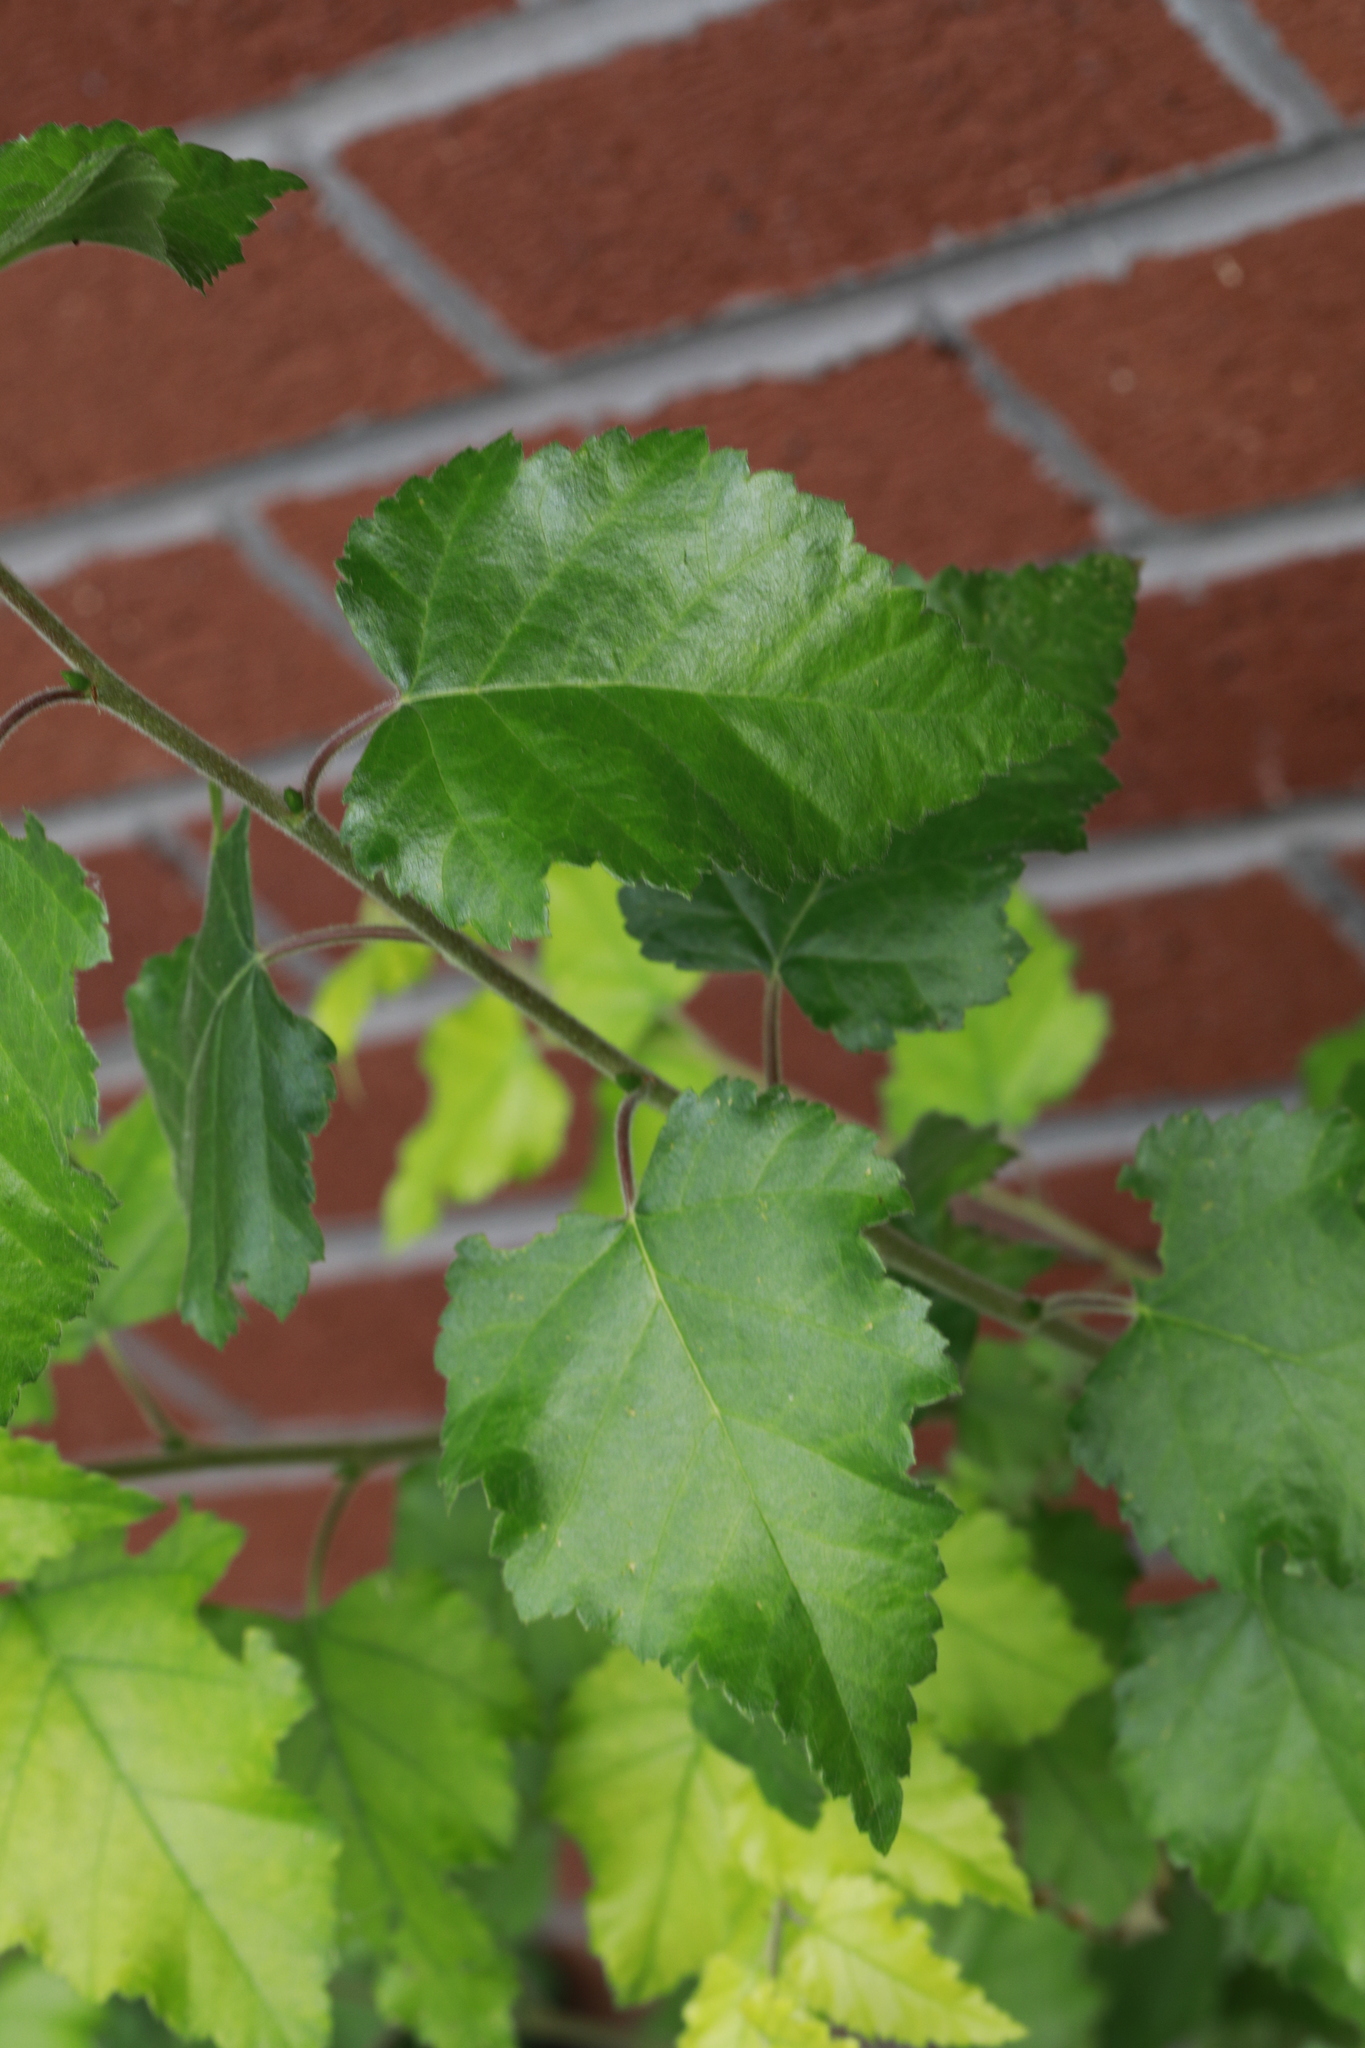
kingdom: Plantae
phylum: Tracheophyta
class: Magnoliopsida
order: Fagales
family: Betulaceae
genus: Betula
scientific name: Betula pubescens
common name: Downy birch
